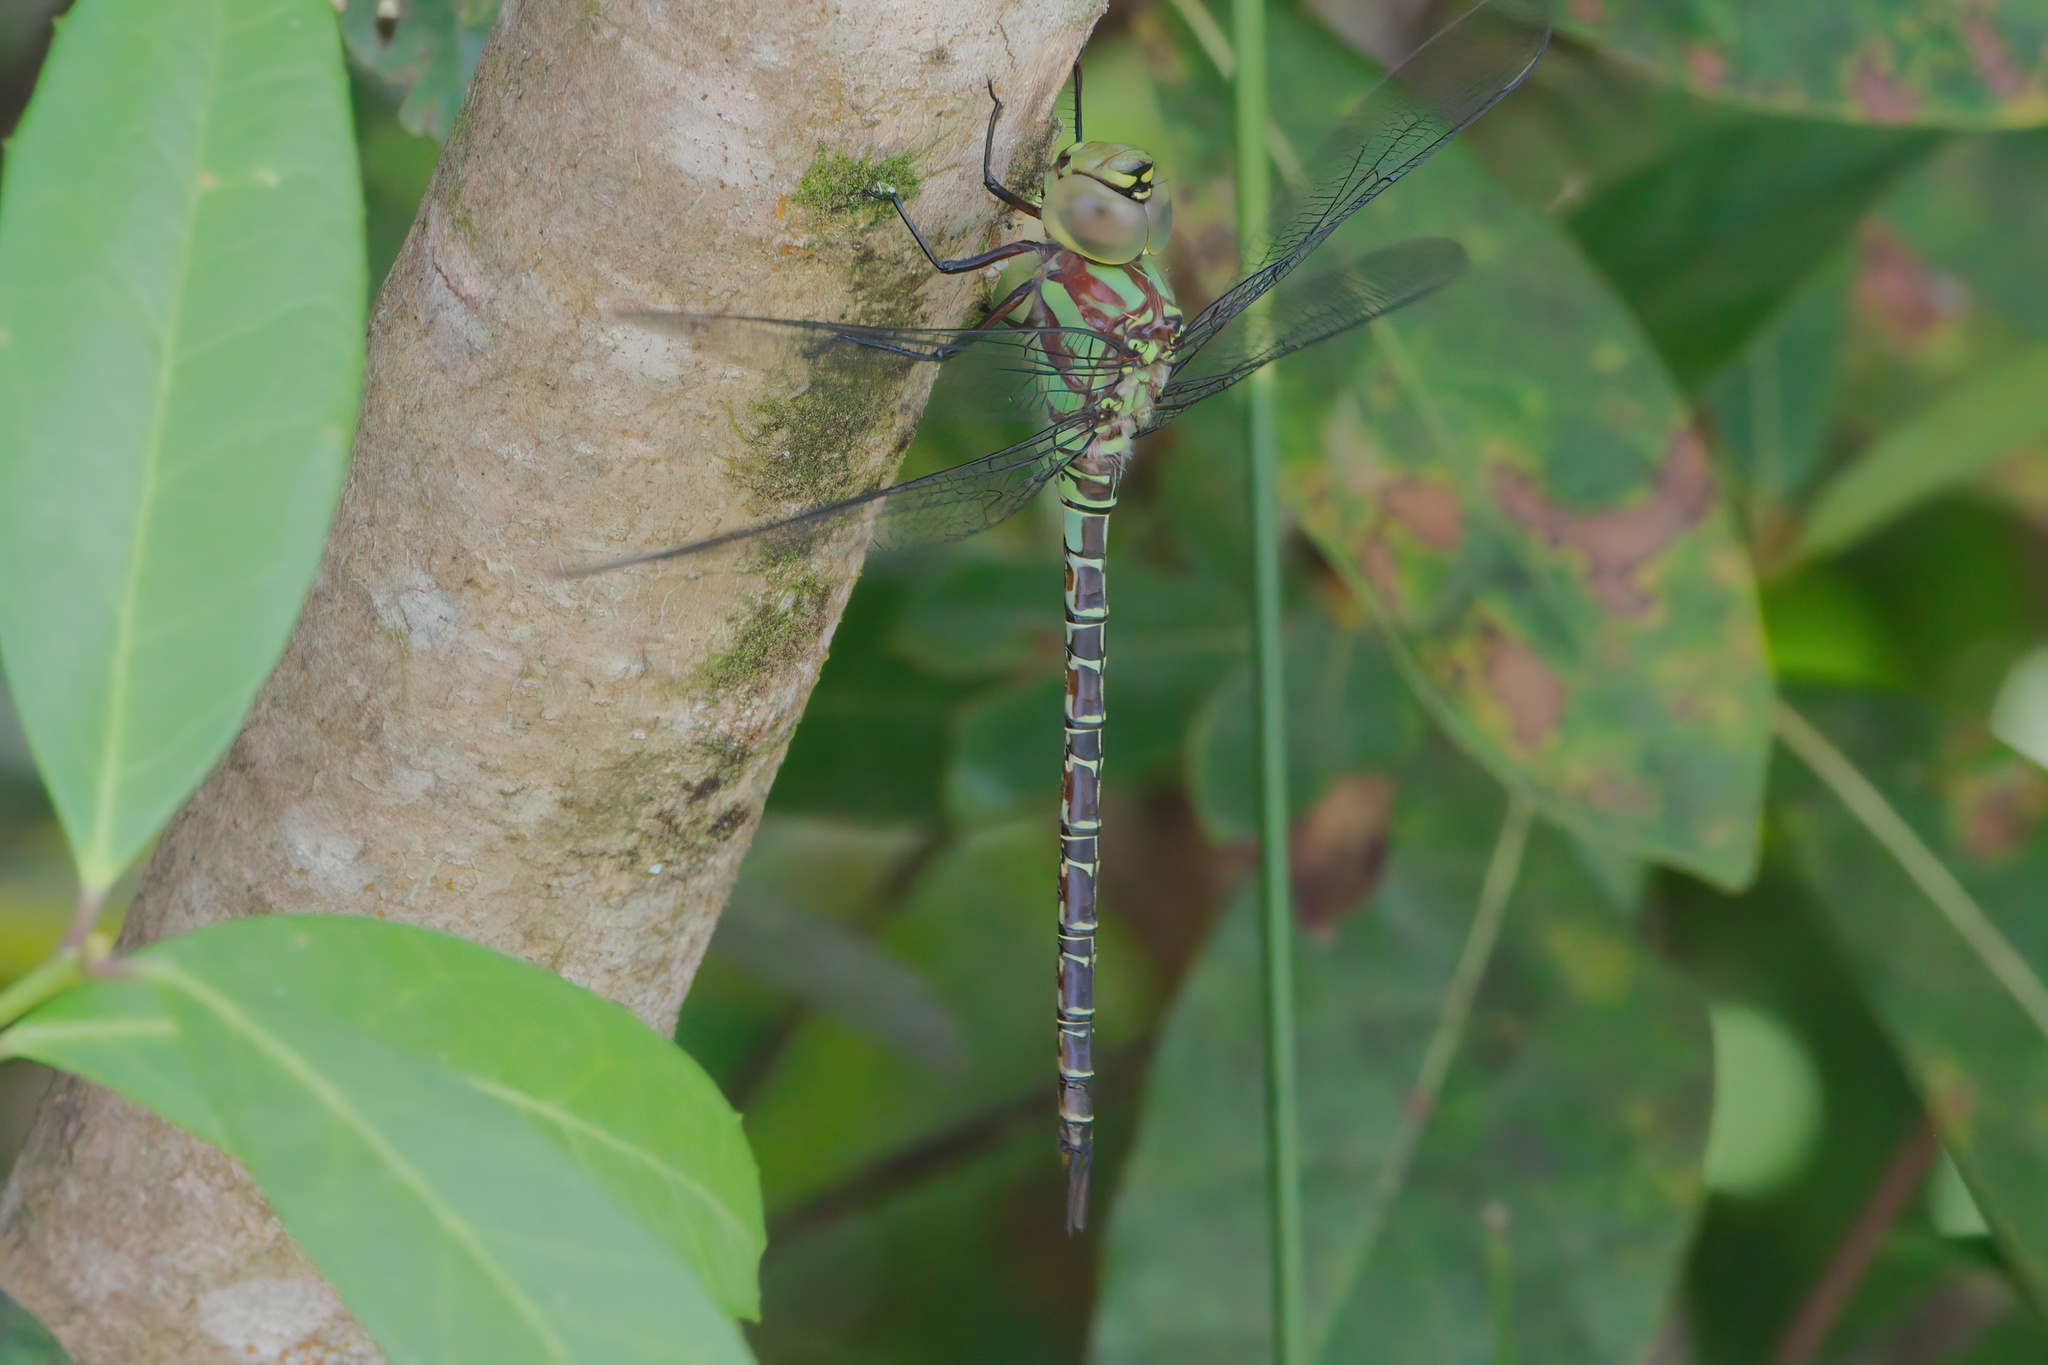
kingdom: Animalia
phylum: Arthropoda
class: Insecta
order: Odonata
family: Aeshnidae
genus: Coryphaeschna
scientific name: Coryphaeschna ingens
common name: Regal darner
